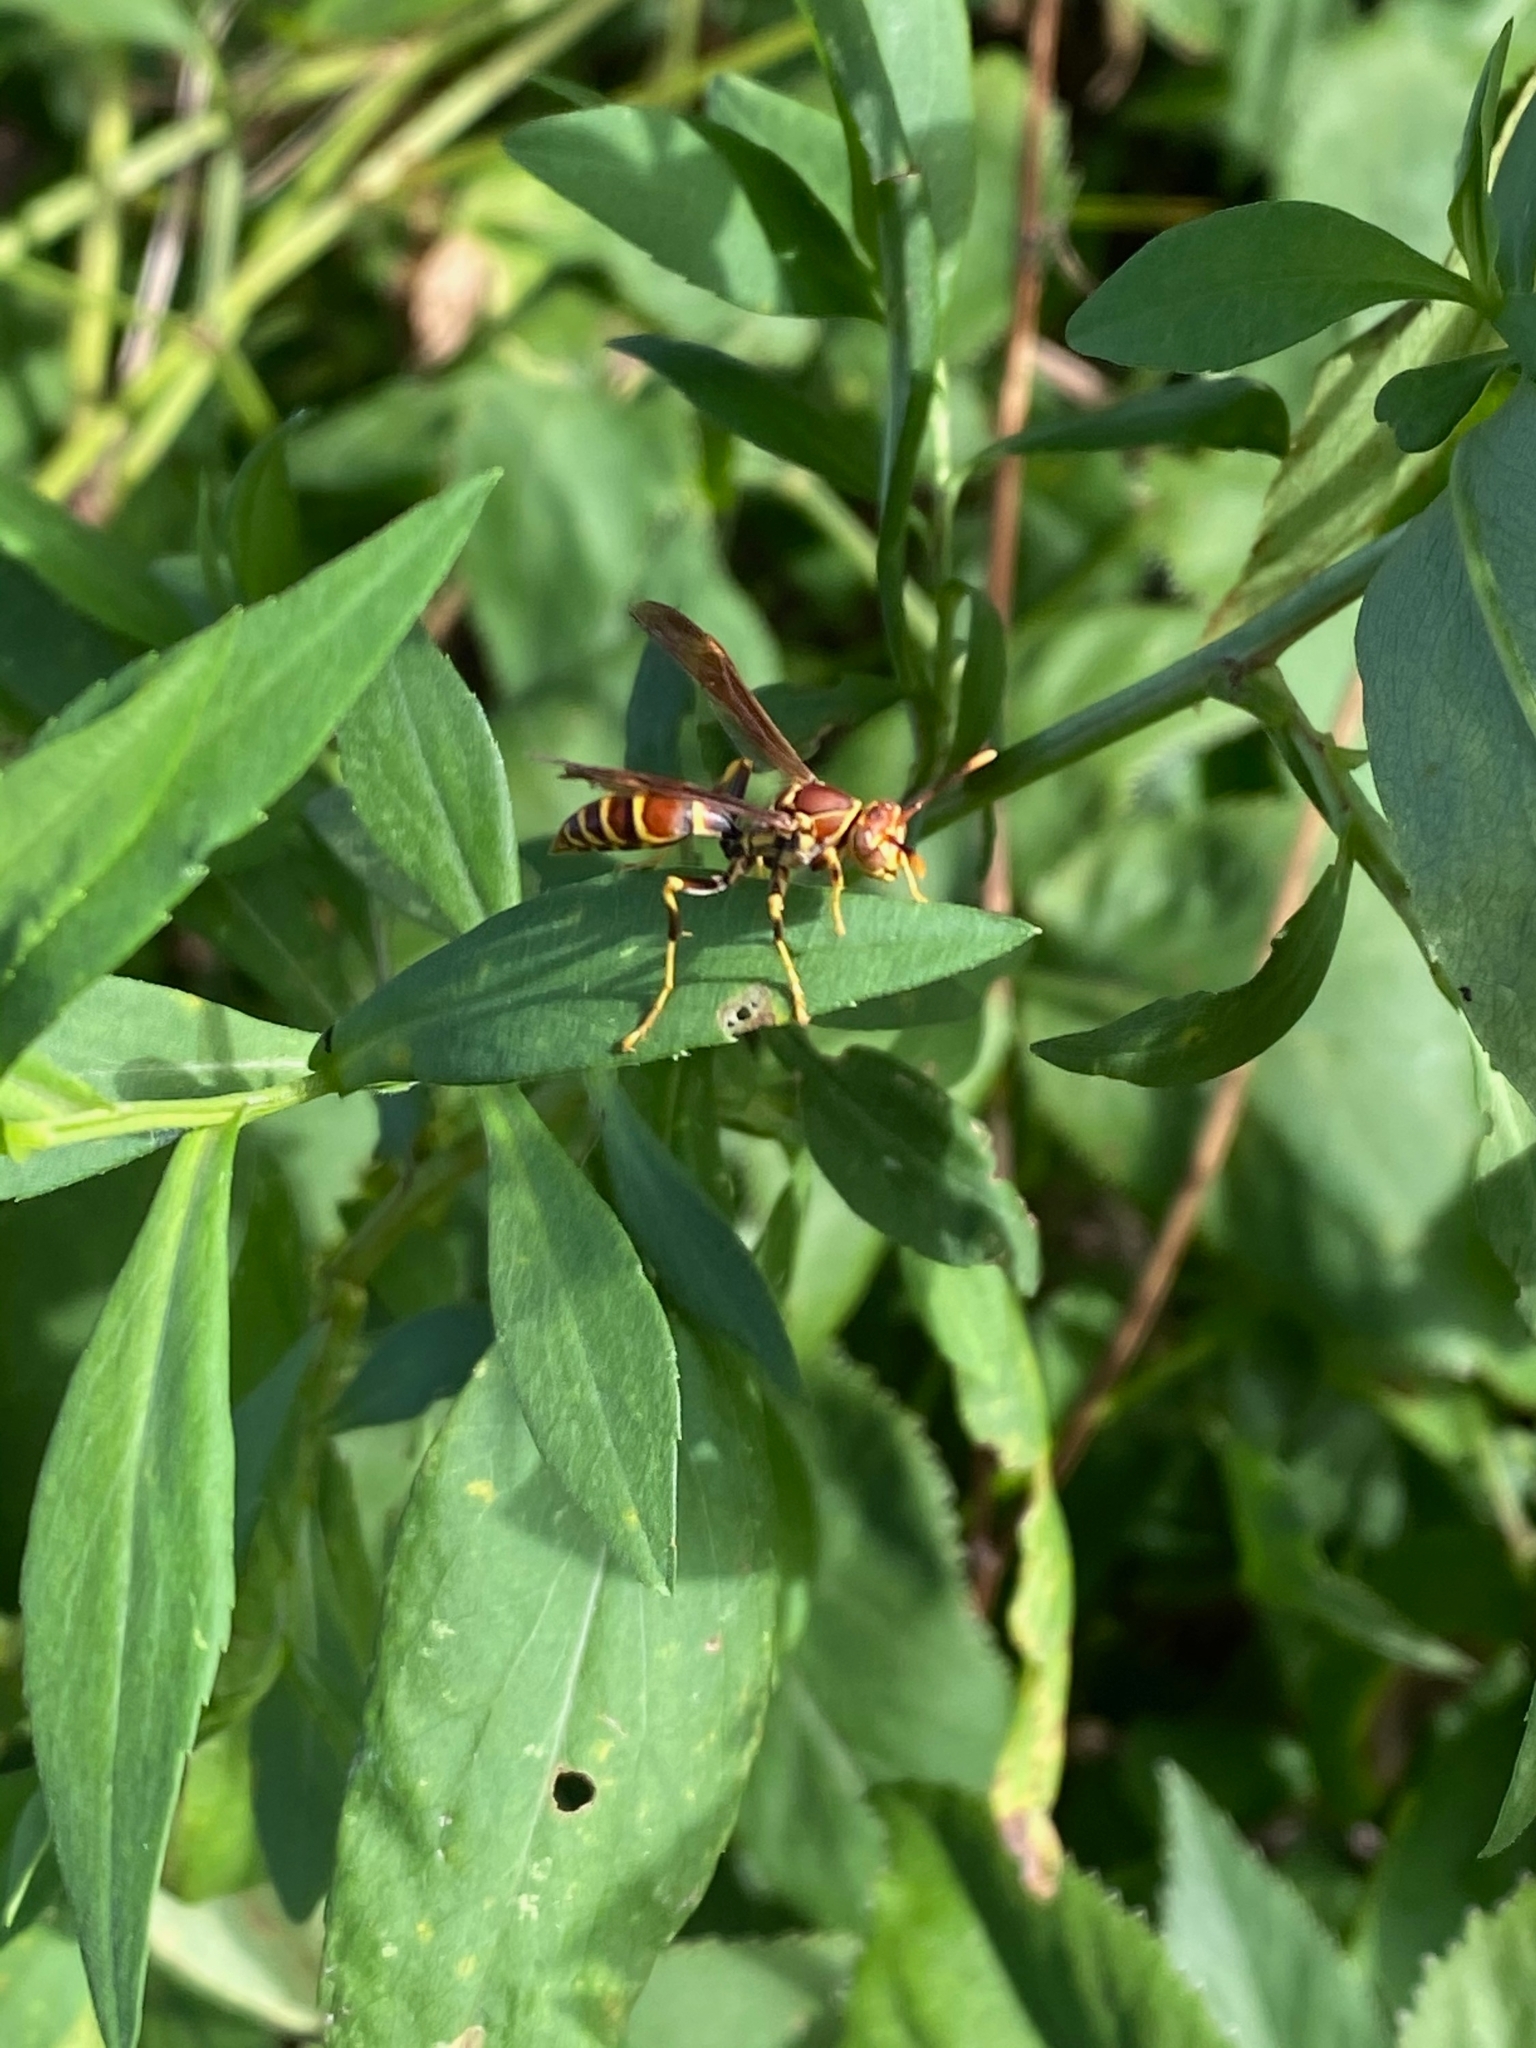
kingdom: Animalia
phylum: Arthropoda
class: Insecta
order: Hymenoptera
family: Eumenidae
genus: Polistes
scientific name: Polistes exclamans
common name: Paper wasp
